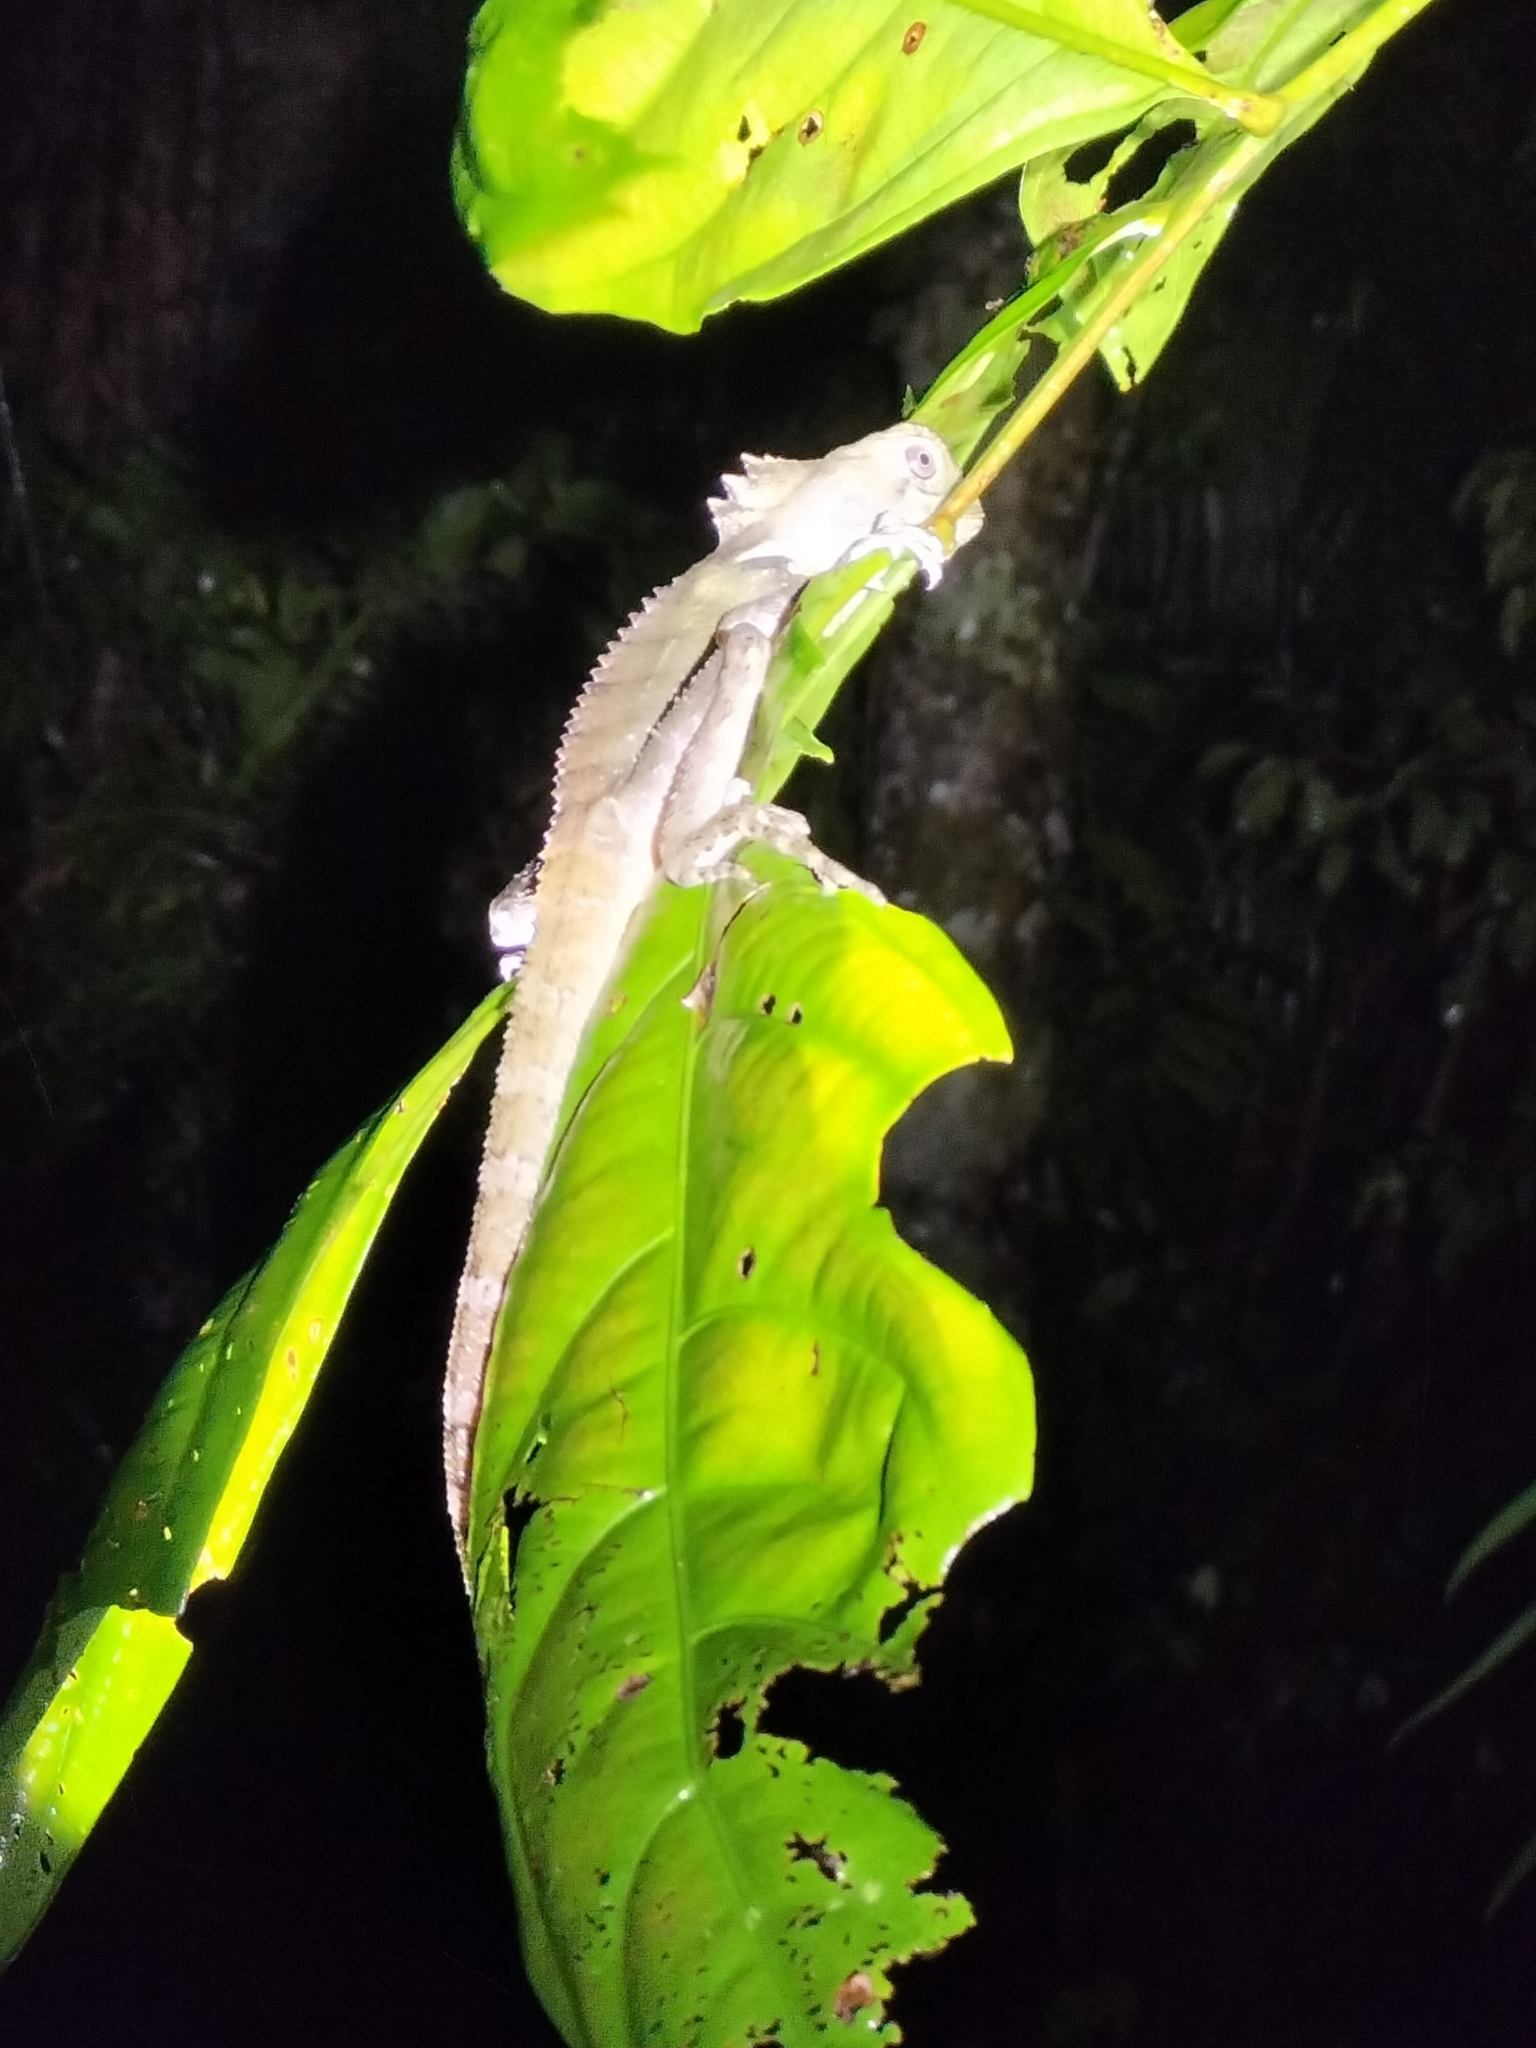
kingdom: Animalia
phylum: Chordata
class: Squamata
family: Agamidae
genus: Lophosaurus
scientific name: Lophosaurus boydii
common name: Boyd's forest dragon
